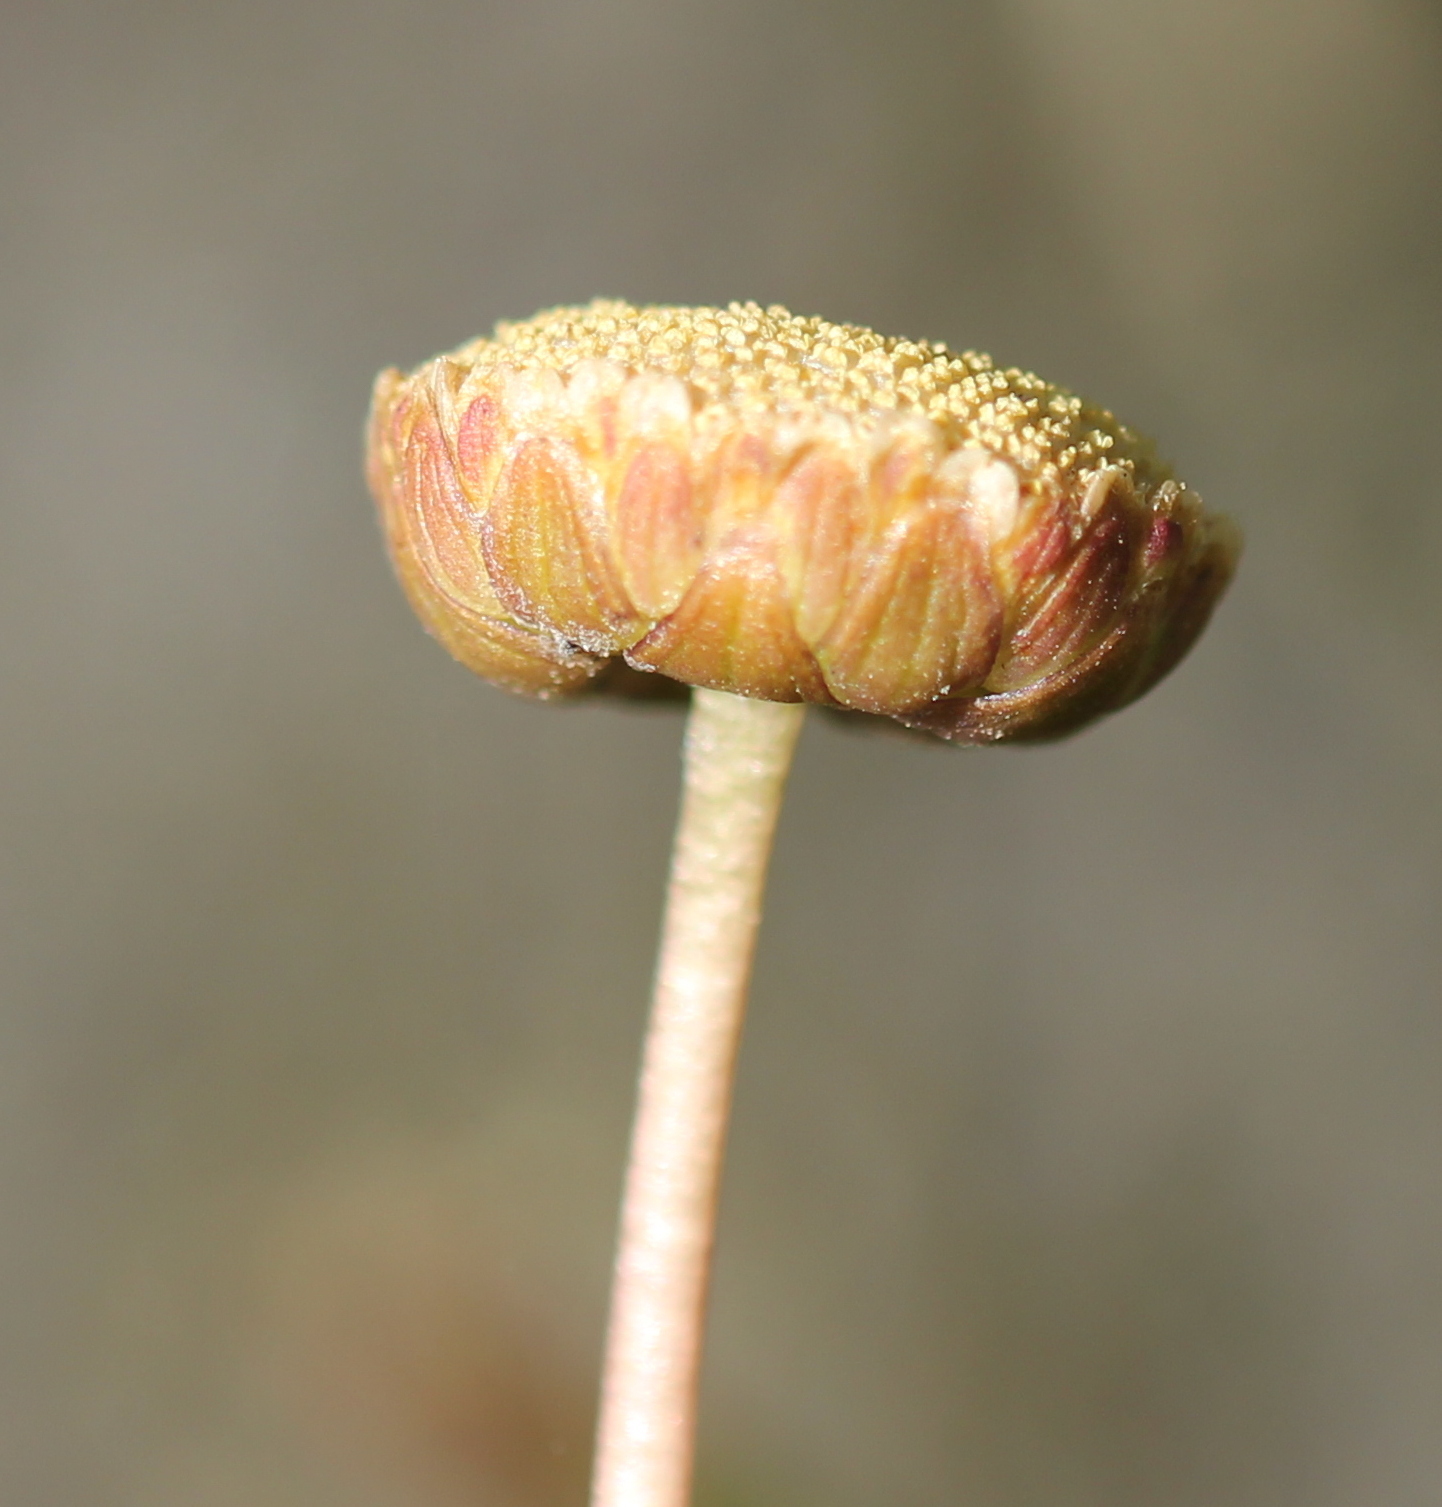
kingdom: Plantae
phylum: Tracheophyta
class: Magnoliopsida
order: Asterales
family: Asteraceae
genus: Cotula
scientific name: Cotula coronopifolia
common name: Buttonweed
